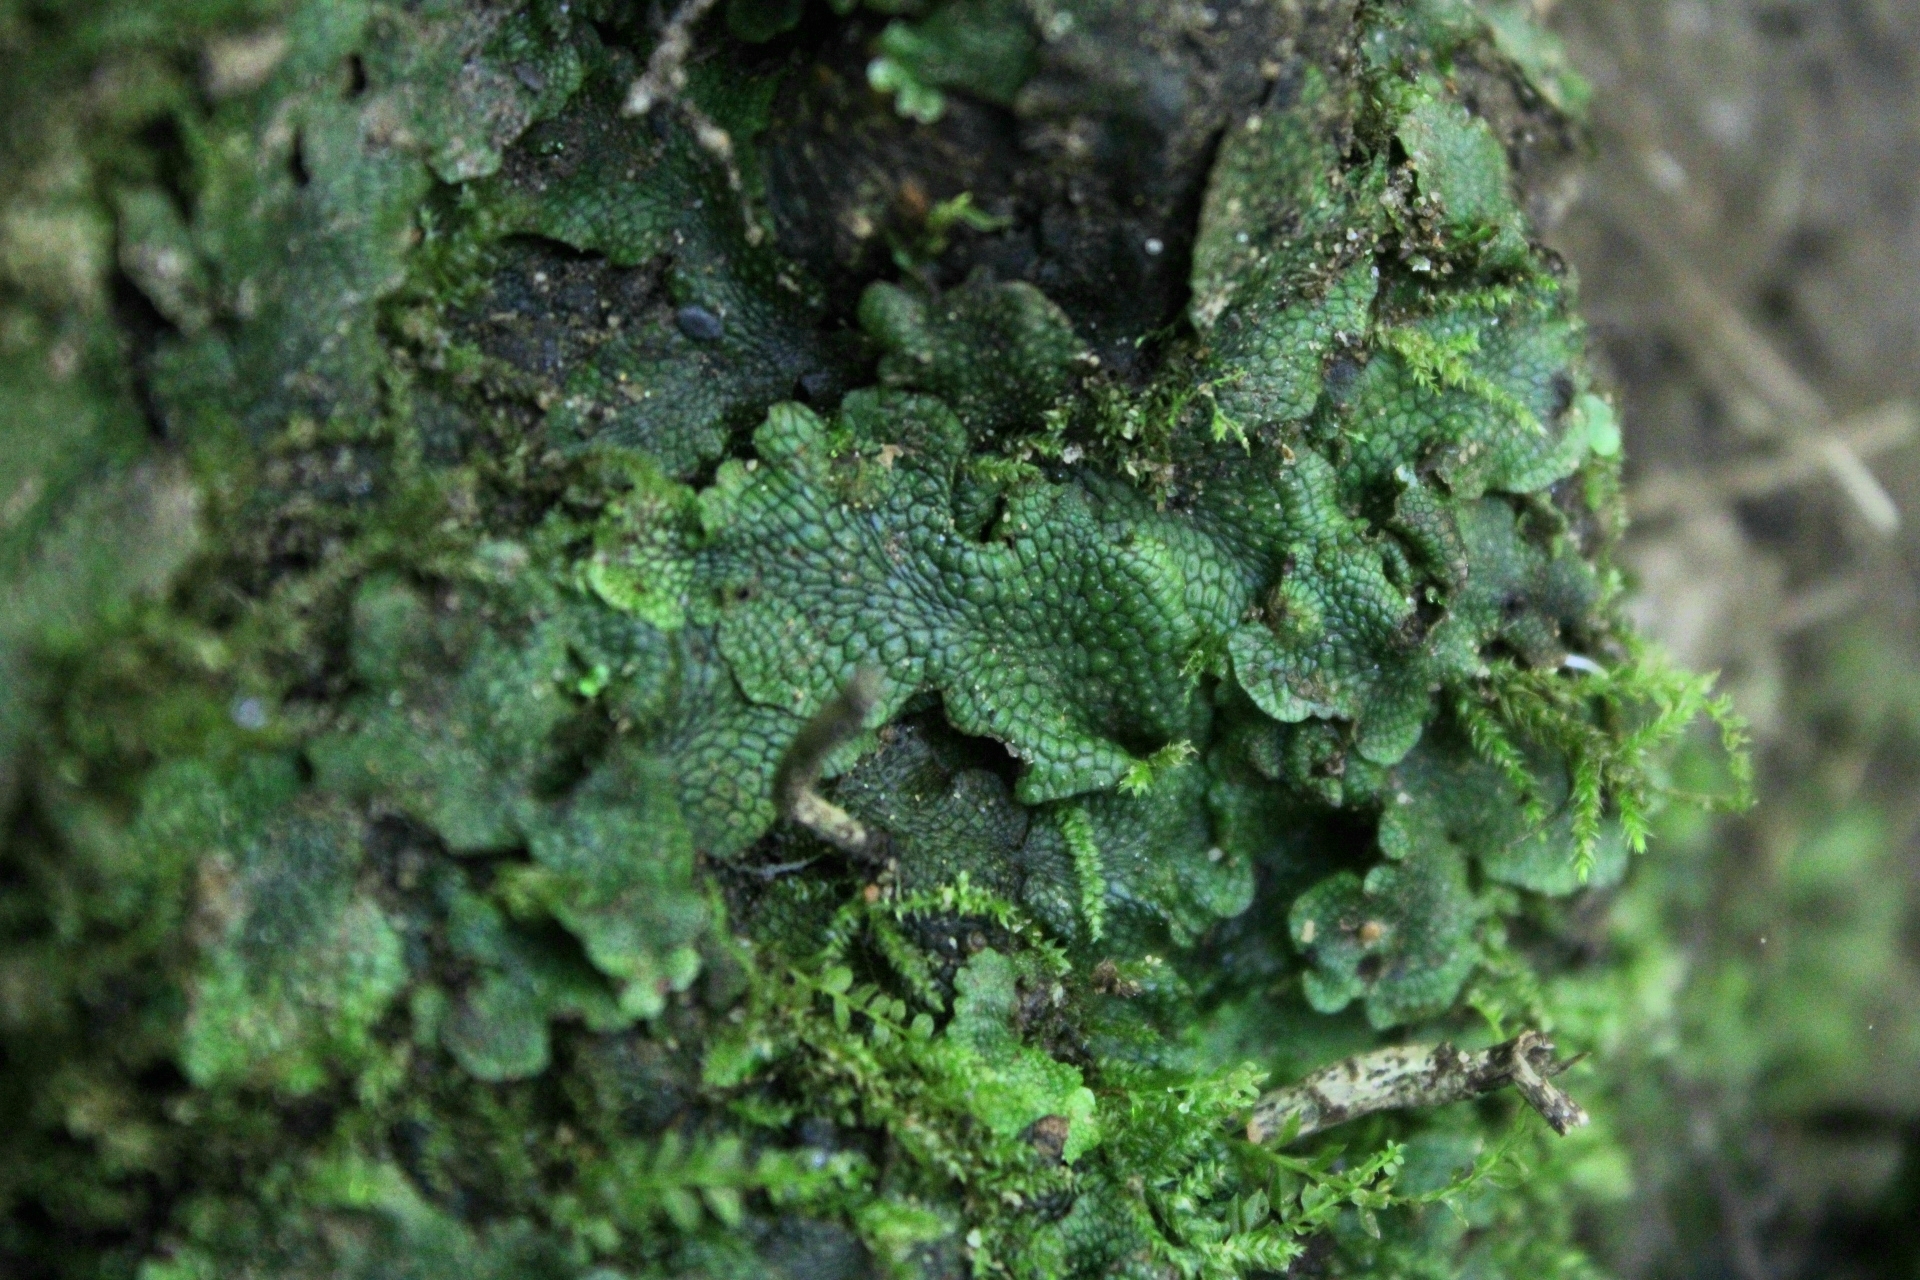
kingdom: Plantae
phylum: Marchantiophyta
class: Marchantiopsida
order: Marchantiales
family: Conocephalaceae
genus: Conocephalum
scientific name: Conocephalum salebrosum
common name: Cat-tongue liverwort
